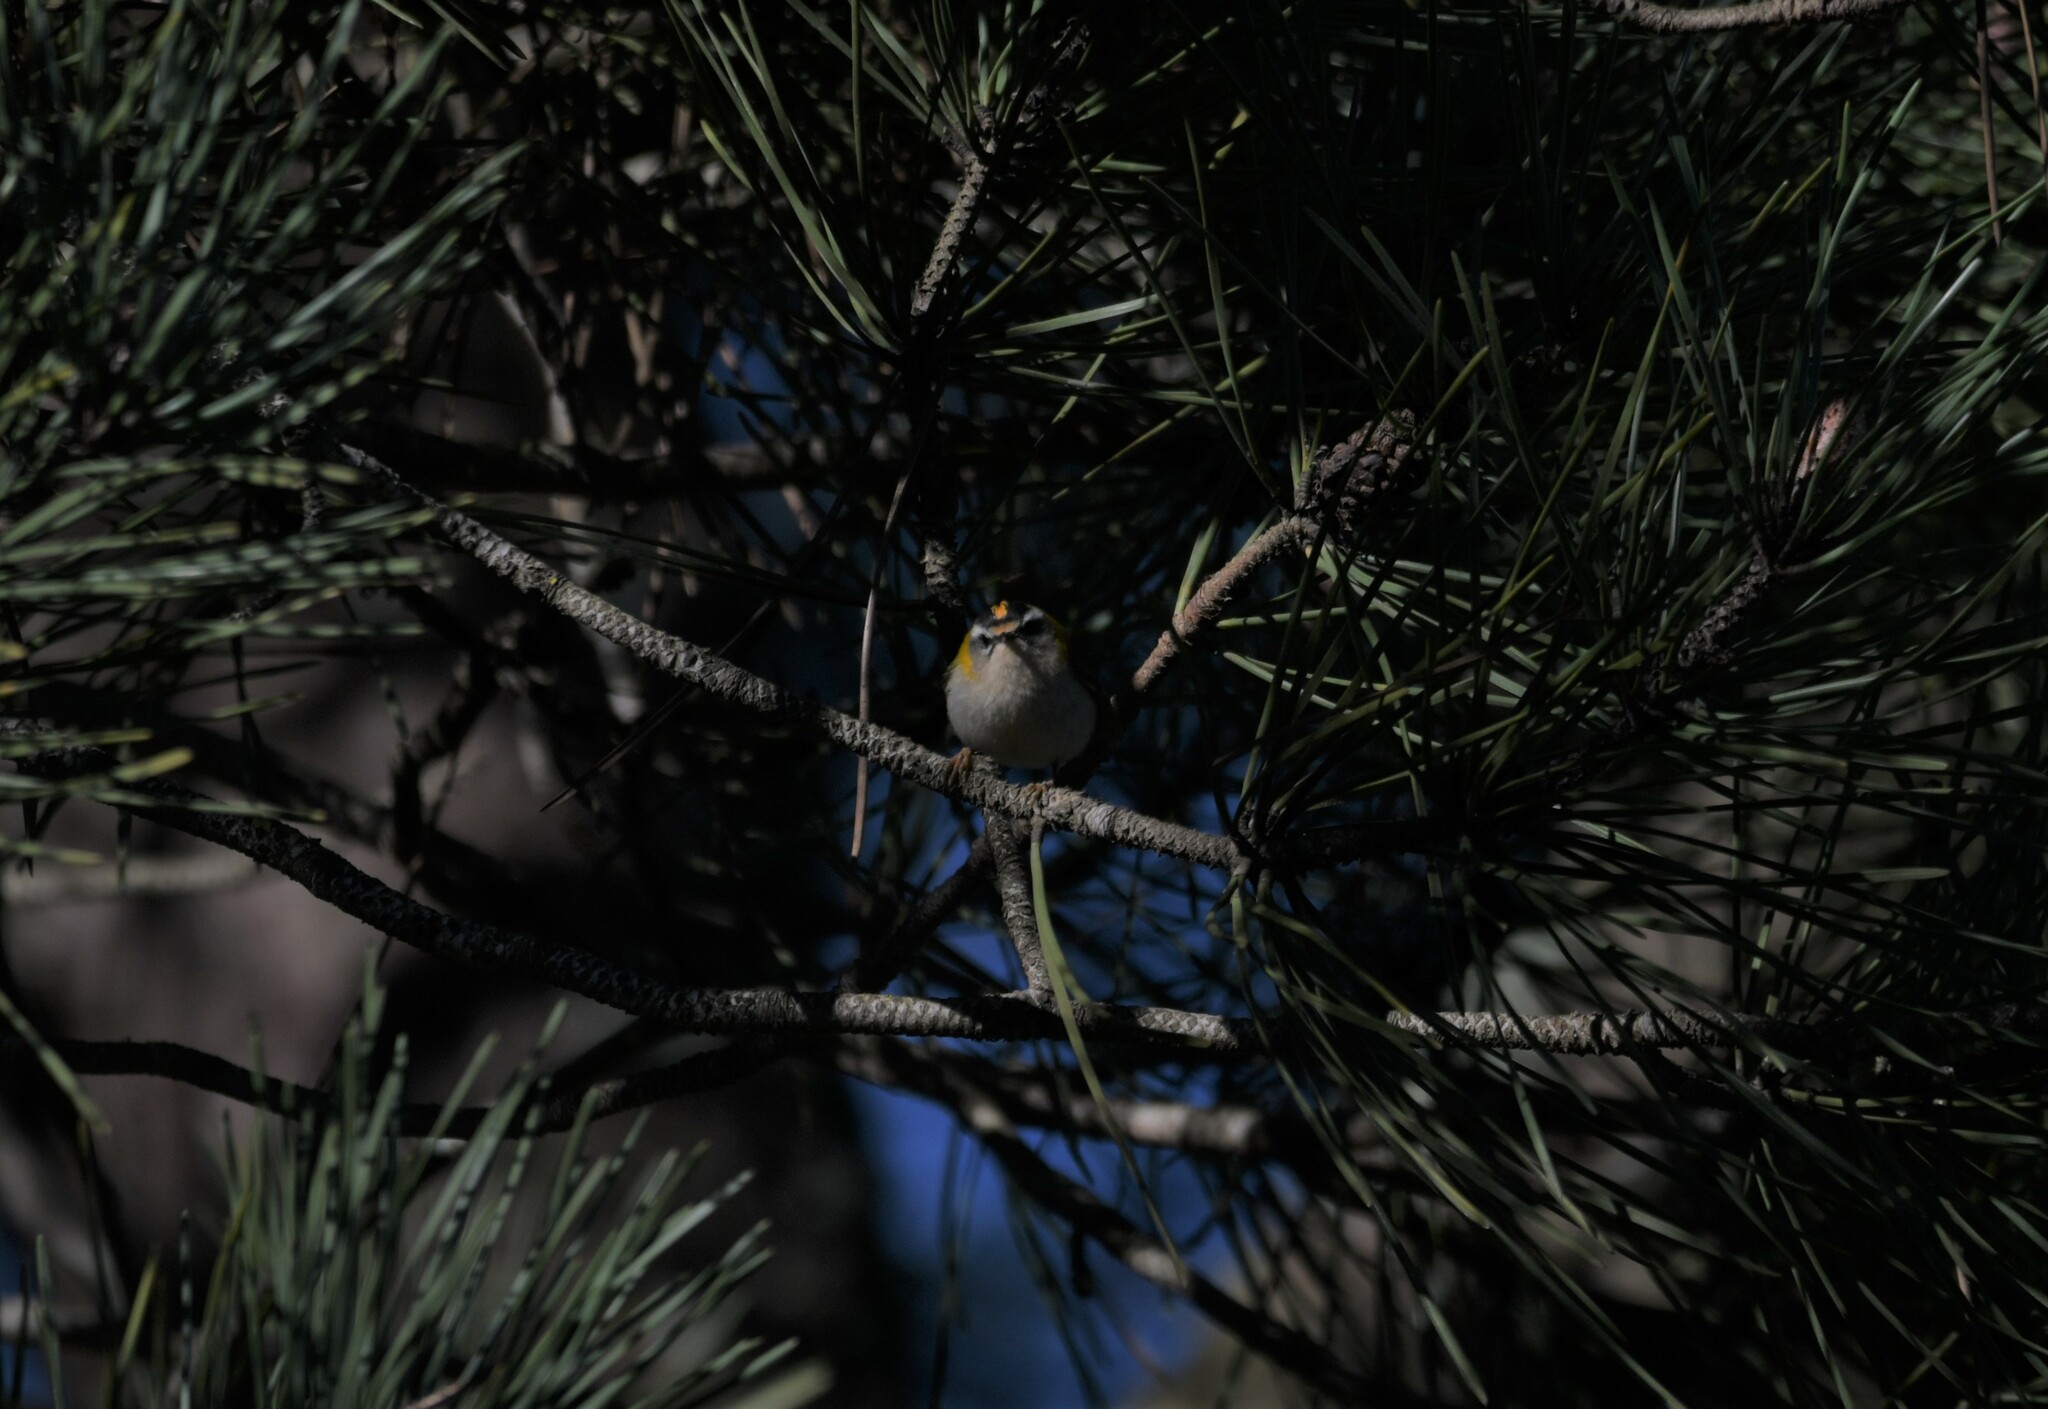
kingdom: Animalia
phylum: Chordata
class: Aves
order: Passeriformes
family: Regulidae
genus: Regulus
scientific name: Regulus ignicapilla
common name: Firecrest
